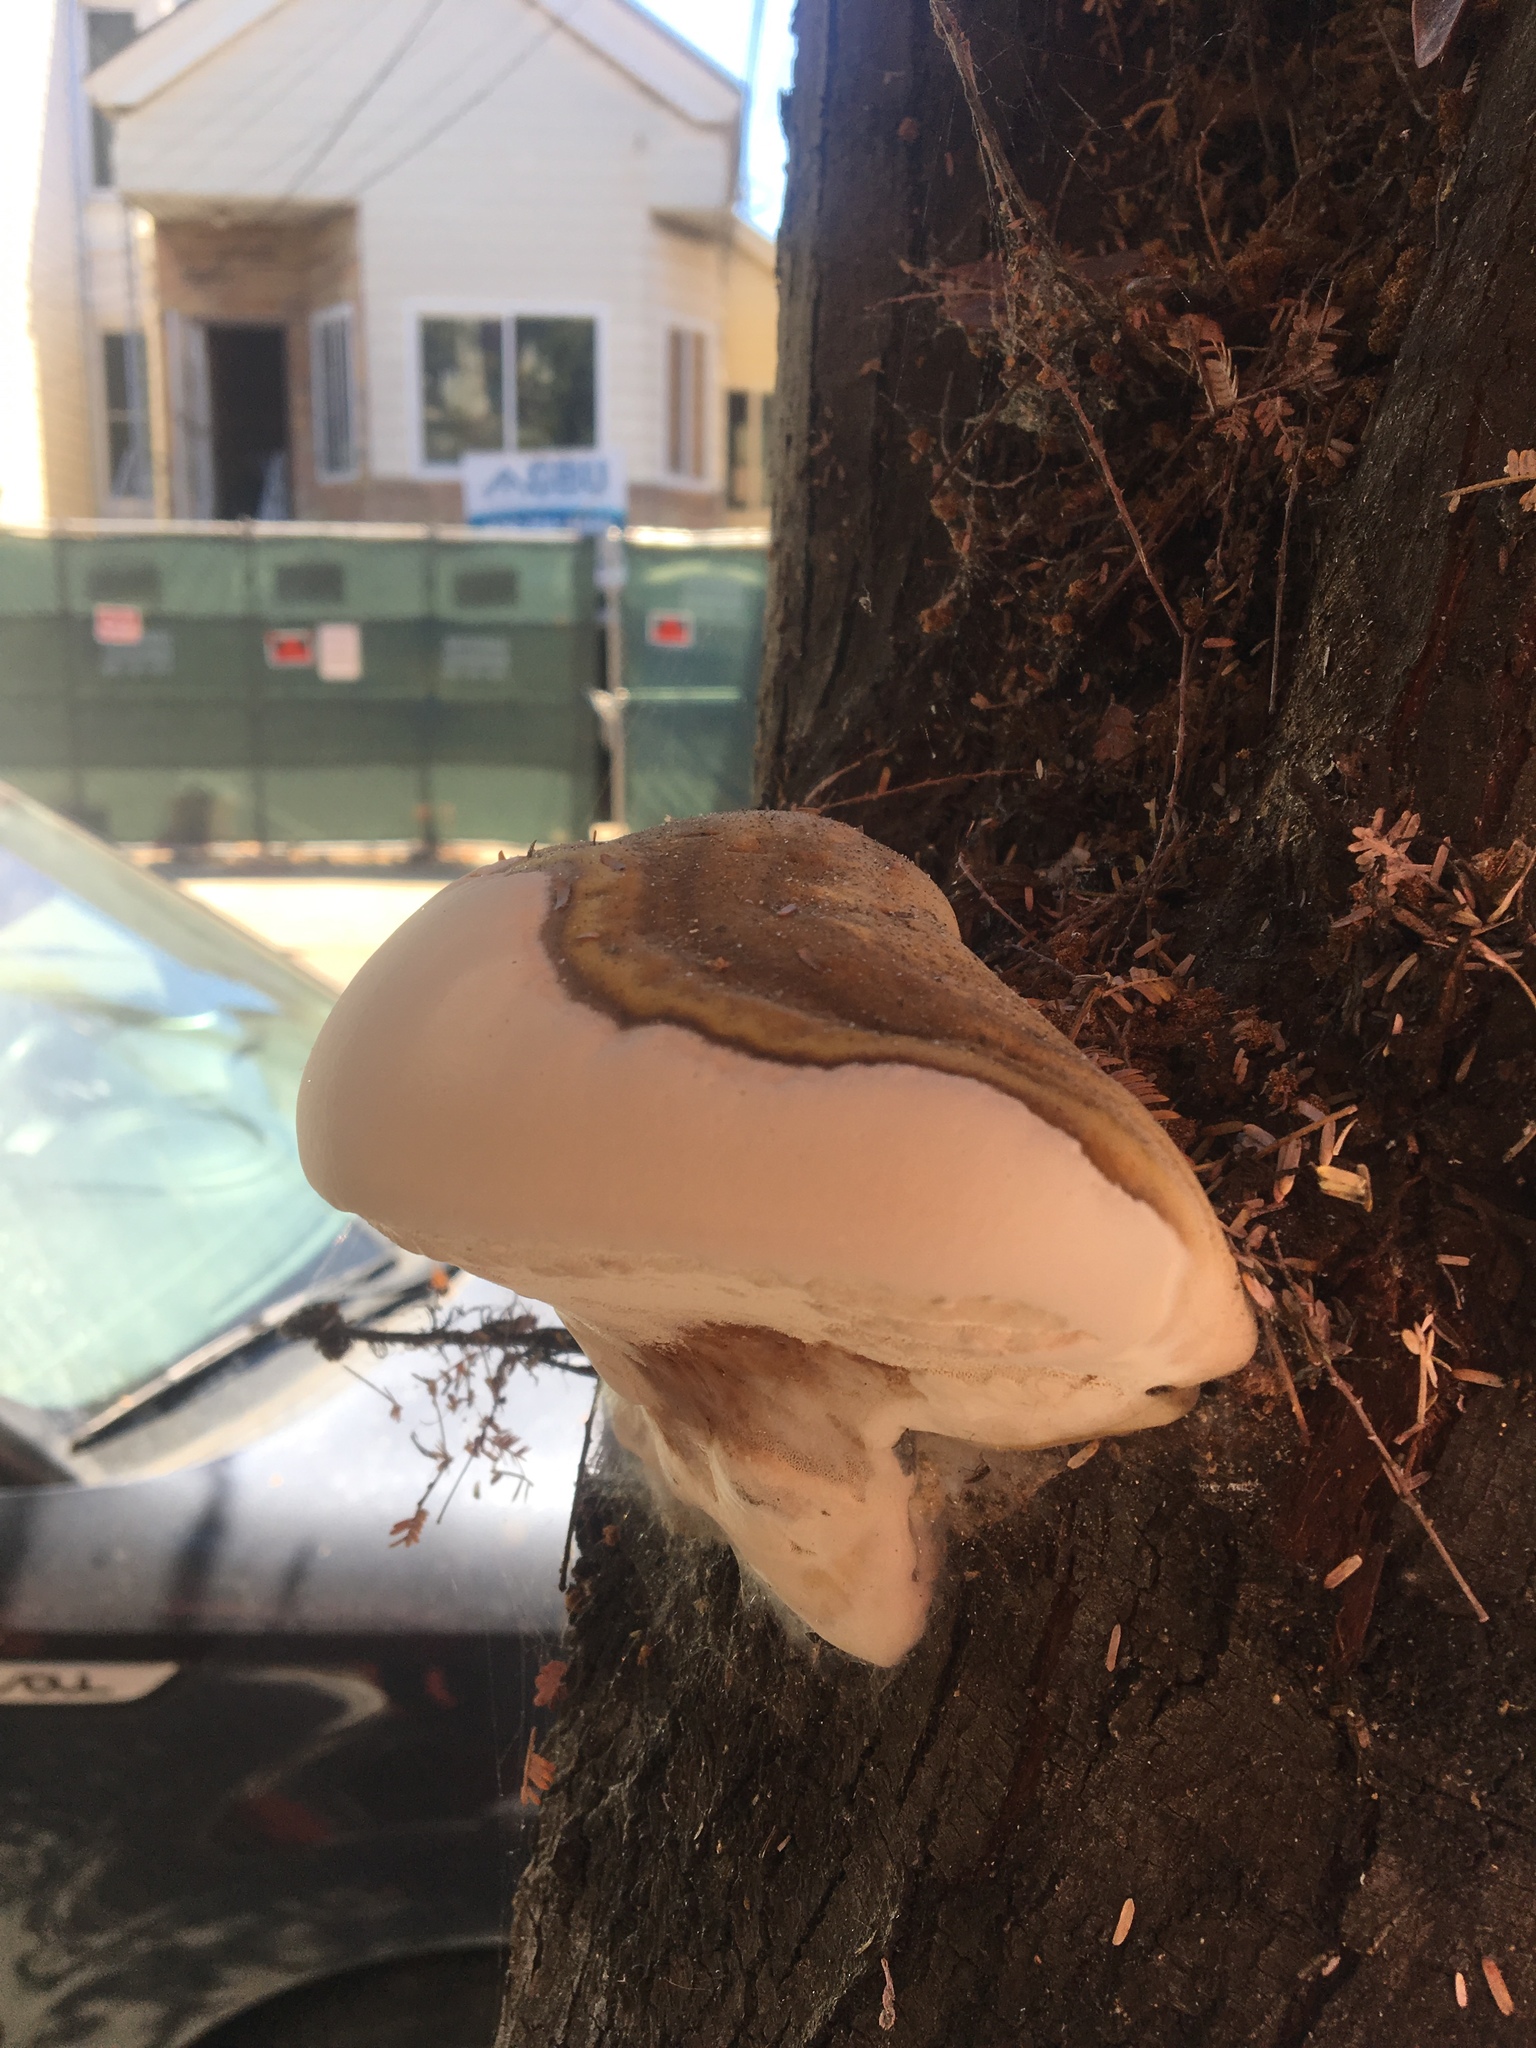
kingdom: Fungi
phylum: Basidiomycota
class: Agaricomycetes
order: Polyporales
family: Polyporaceae
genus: Ganoderma
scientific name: Ganoderma brownii
